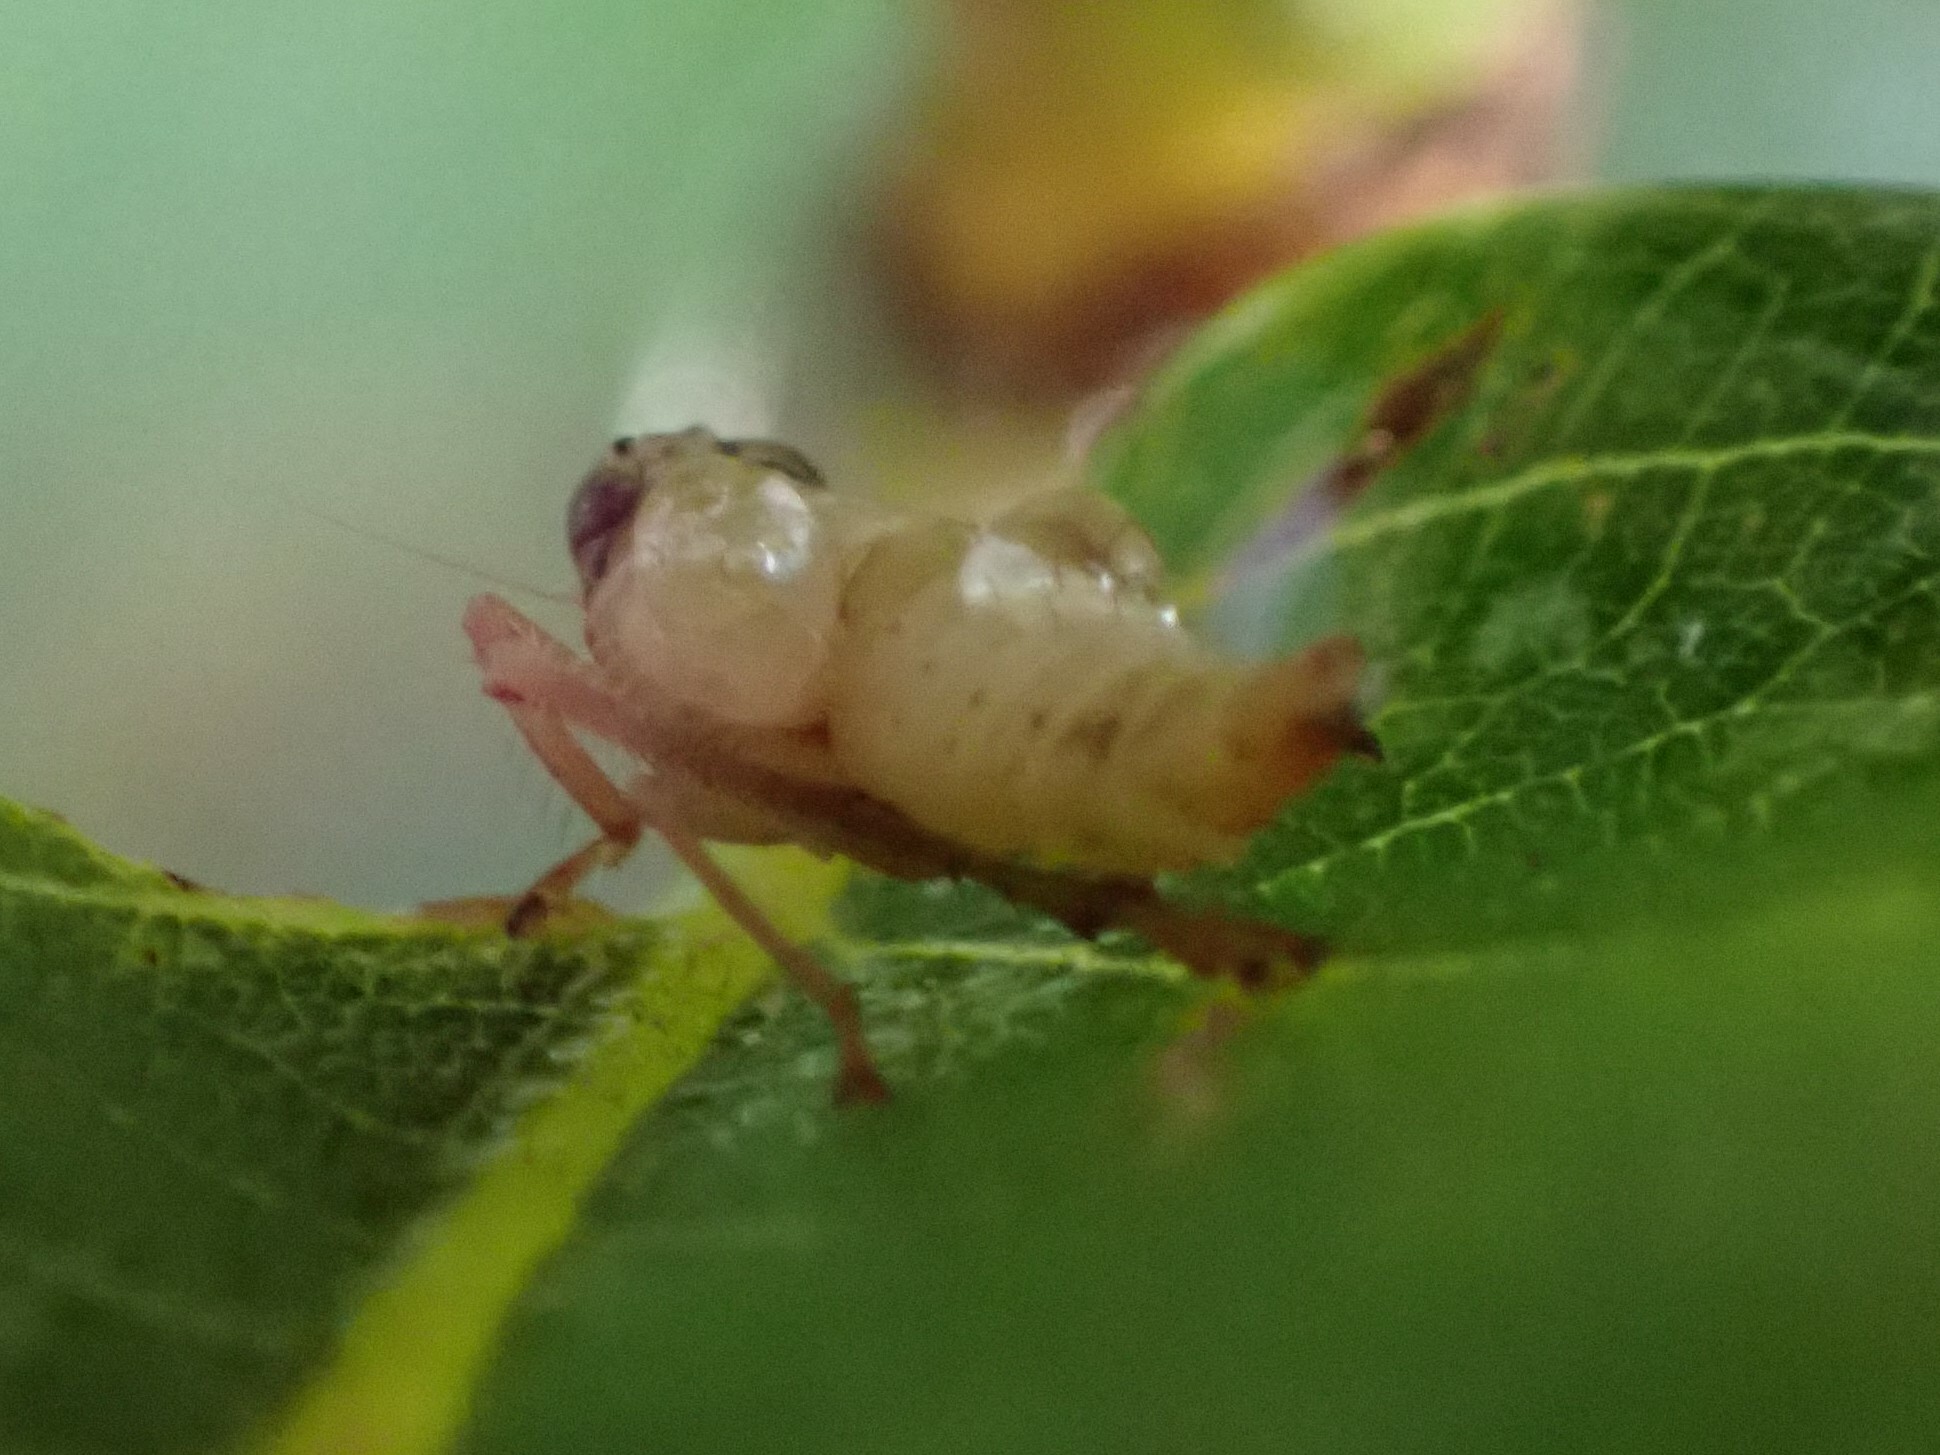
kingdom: Animalia
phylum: Arthropoda
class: Insecta
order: Hemiptera
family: Cicadellidae
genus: Jikradia
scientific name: Jikradia olitoria
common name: Coppery leafhopper
